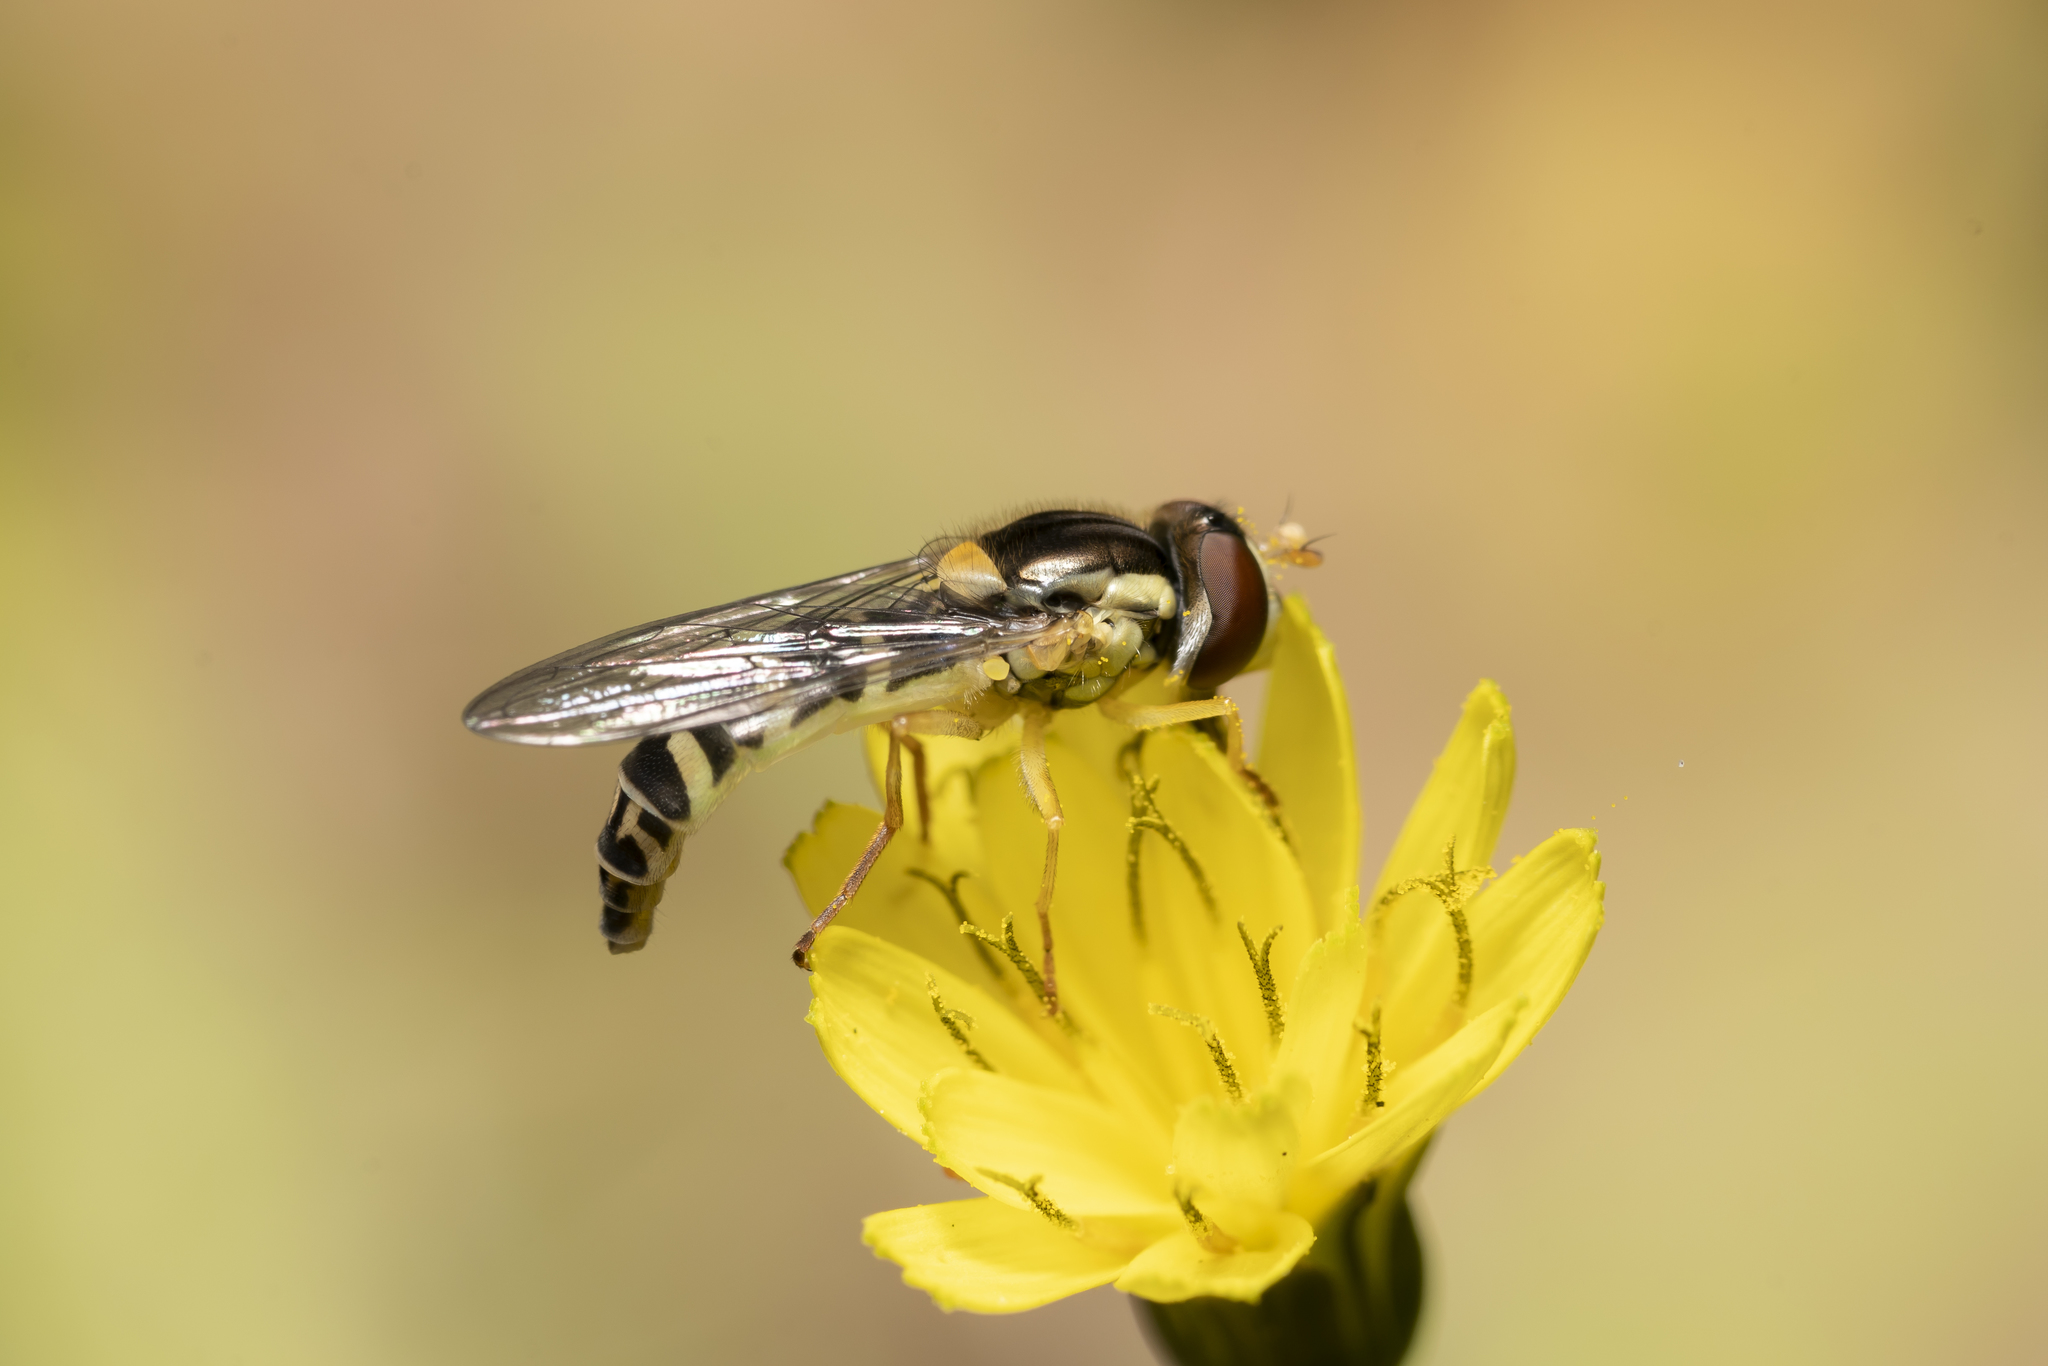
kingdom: Animalia
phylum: Arthropoda
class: Insecta
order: Diptera
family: Syrphidae
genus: Sphaerophoria
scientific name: Sphaerophoria
